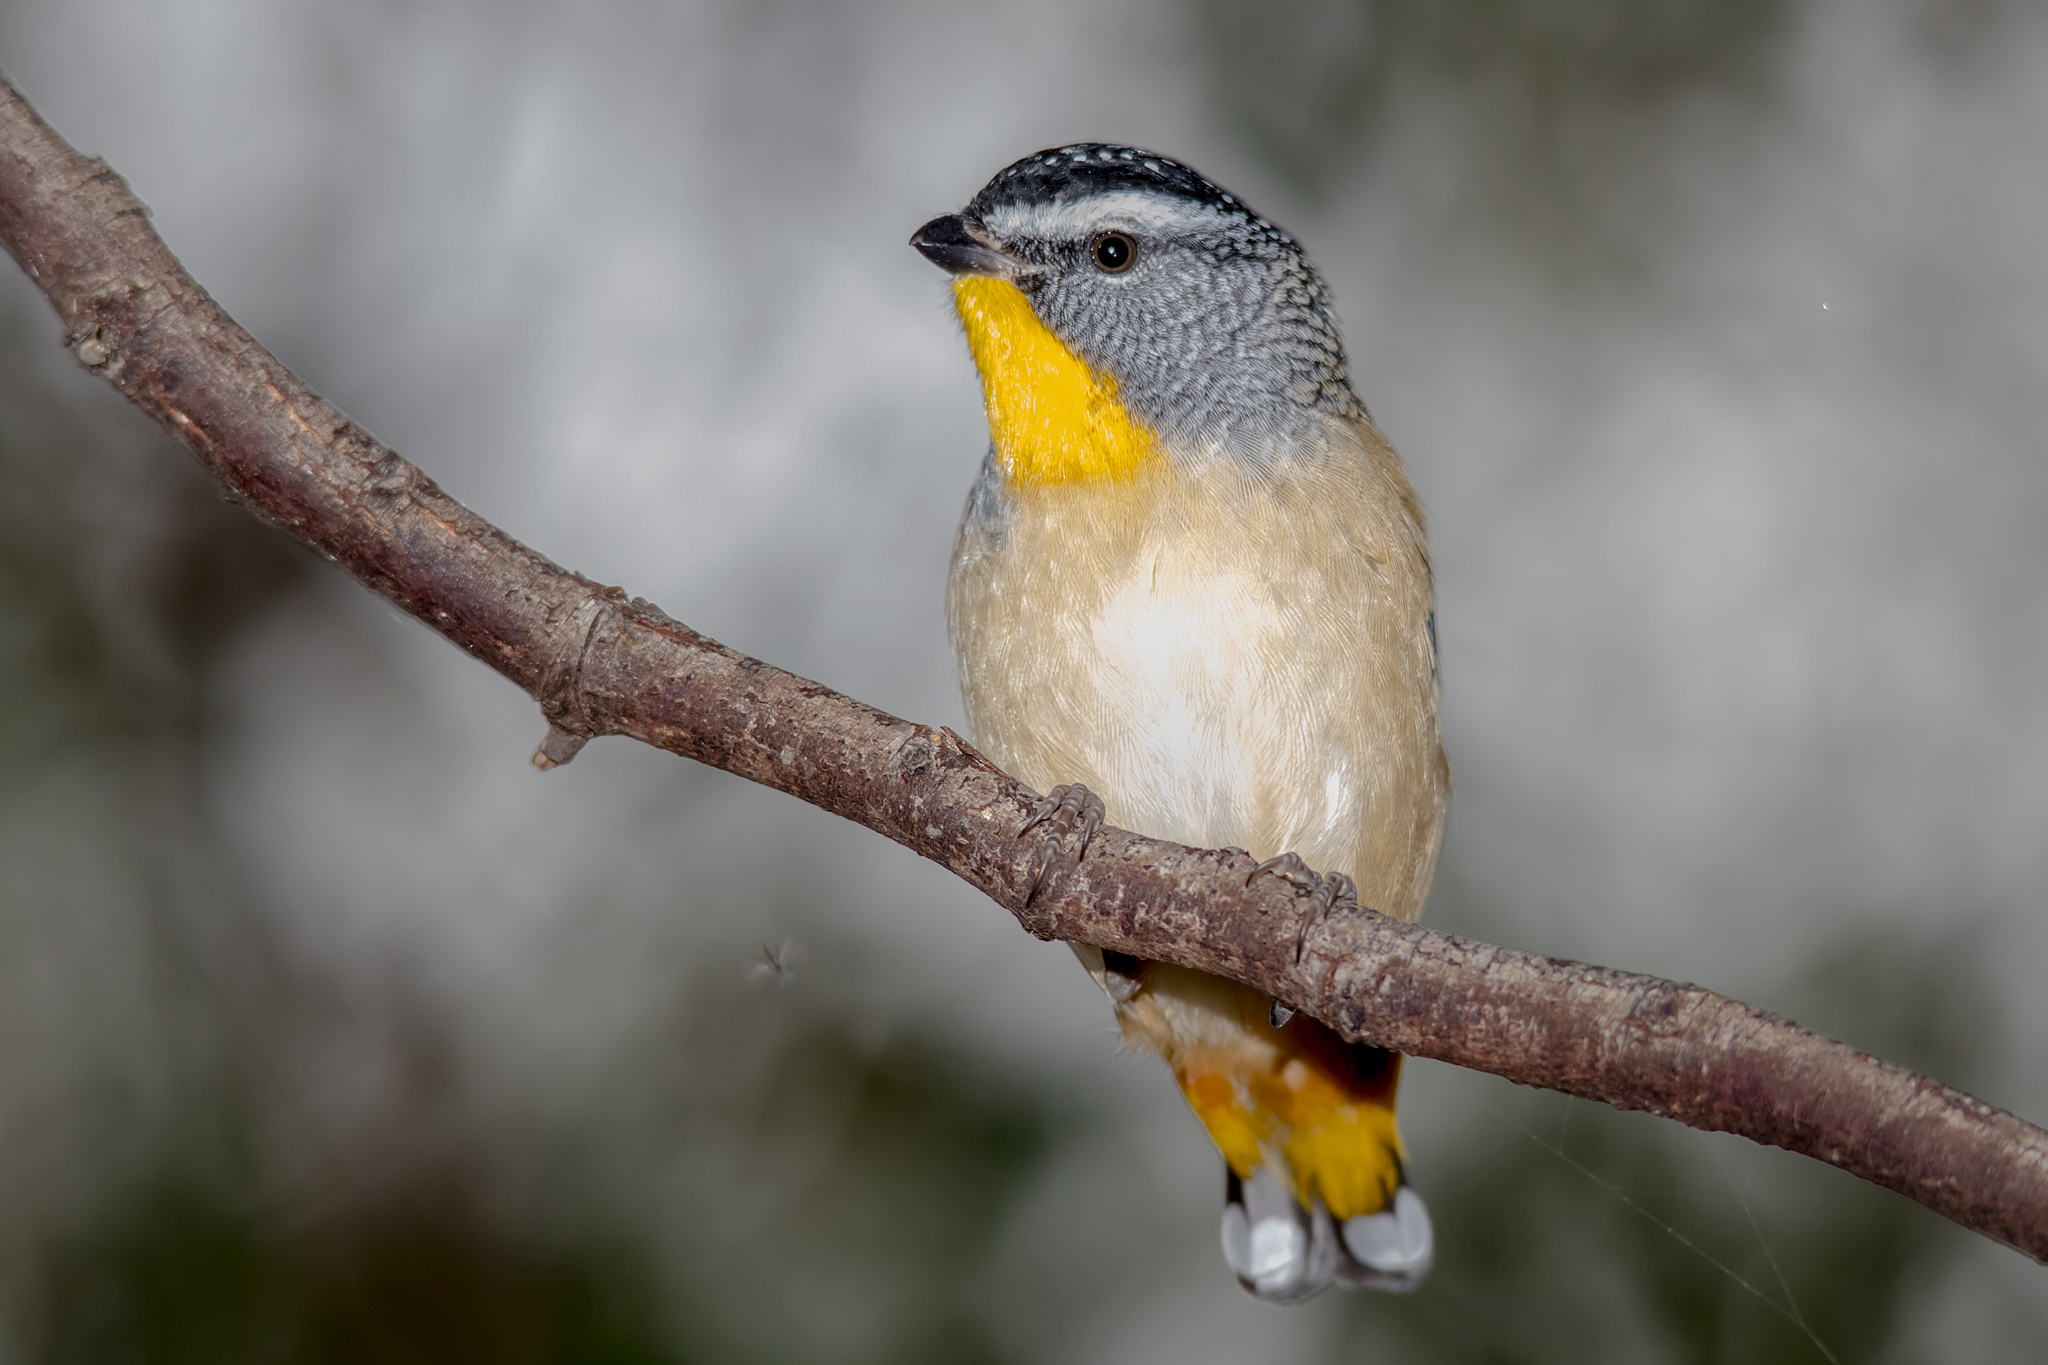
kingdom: Animalia
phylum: Chordata
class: Aves
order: Passeriformes
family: Pardalotidae
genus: Pardalotus
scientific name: Pardalotus punctatus
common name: Spotted pardalote
